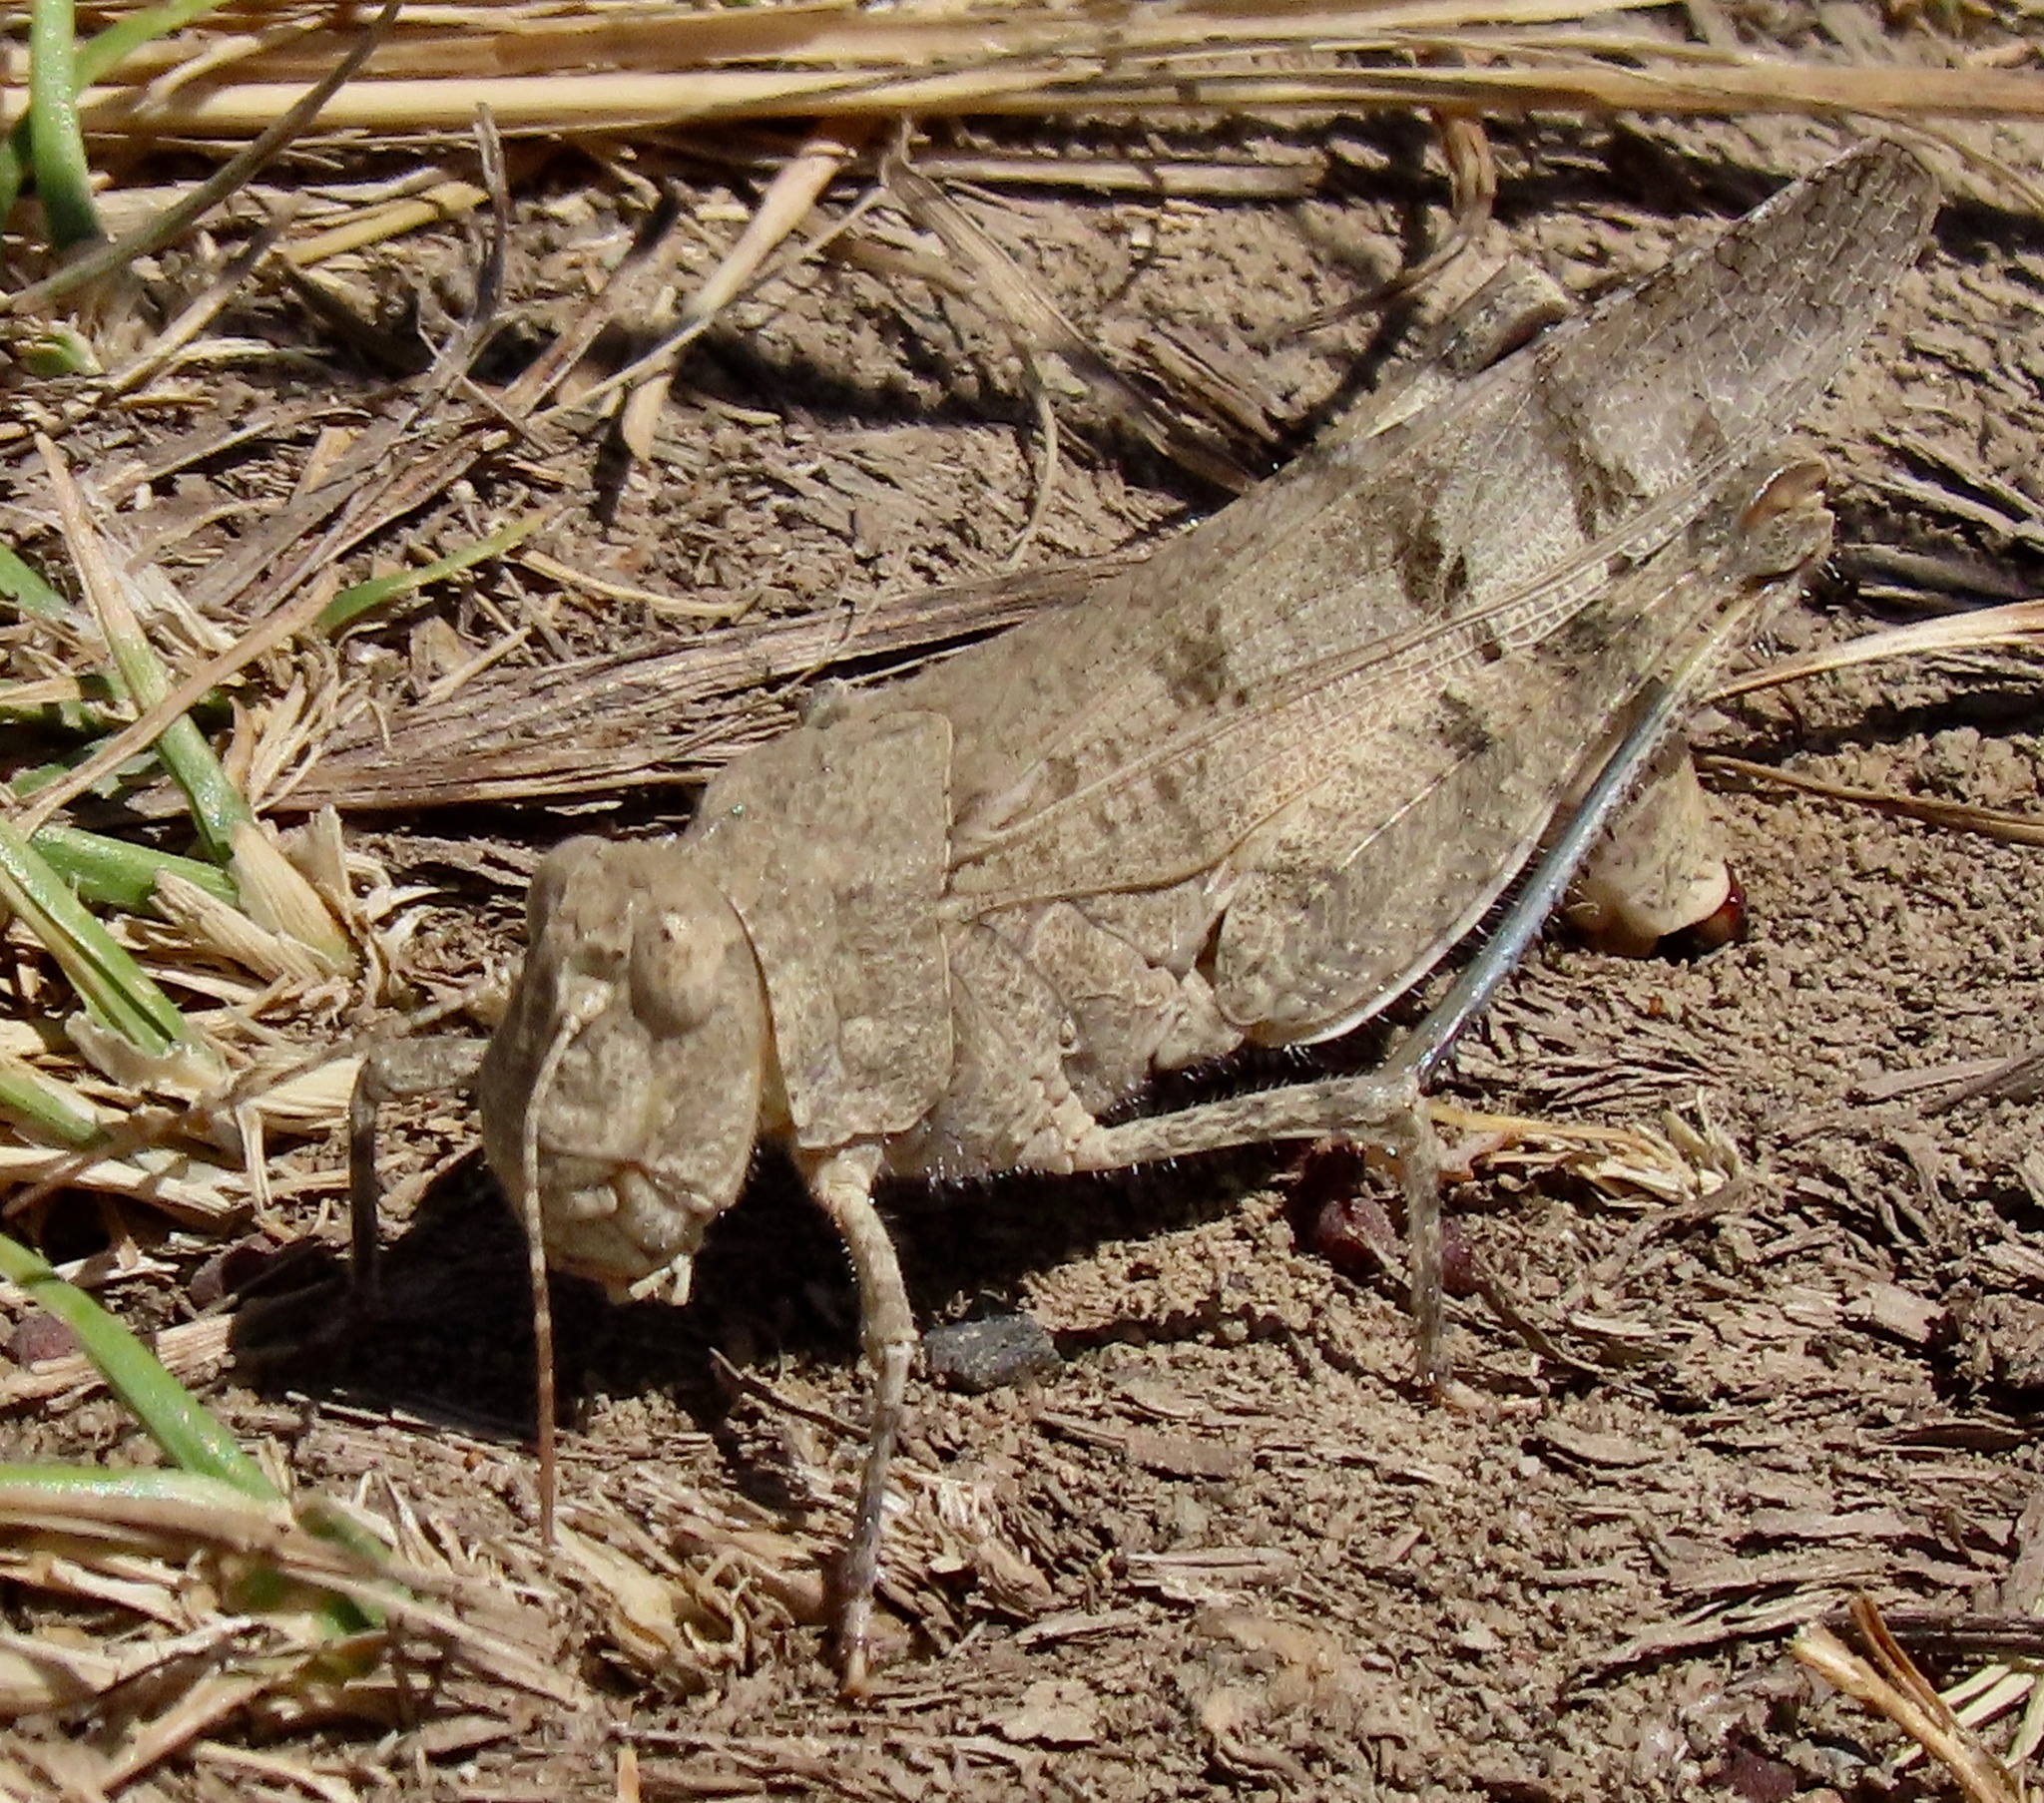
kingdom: Animalia
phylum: Arthropoda
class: Insecta
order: Orthoptera
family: Acrididae
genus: Dissosteira
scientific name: Dissosteira pictipennis
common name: California rose-winged grasshopper
